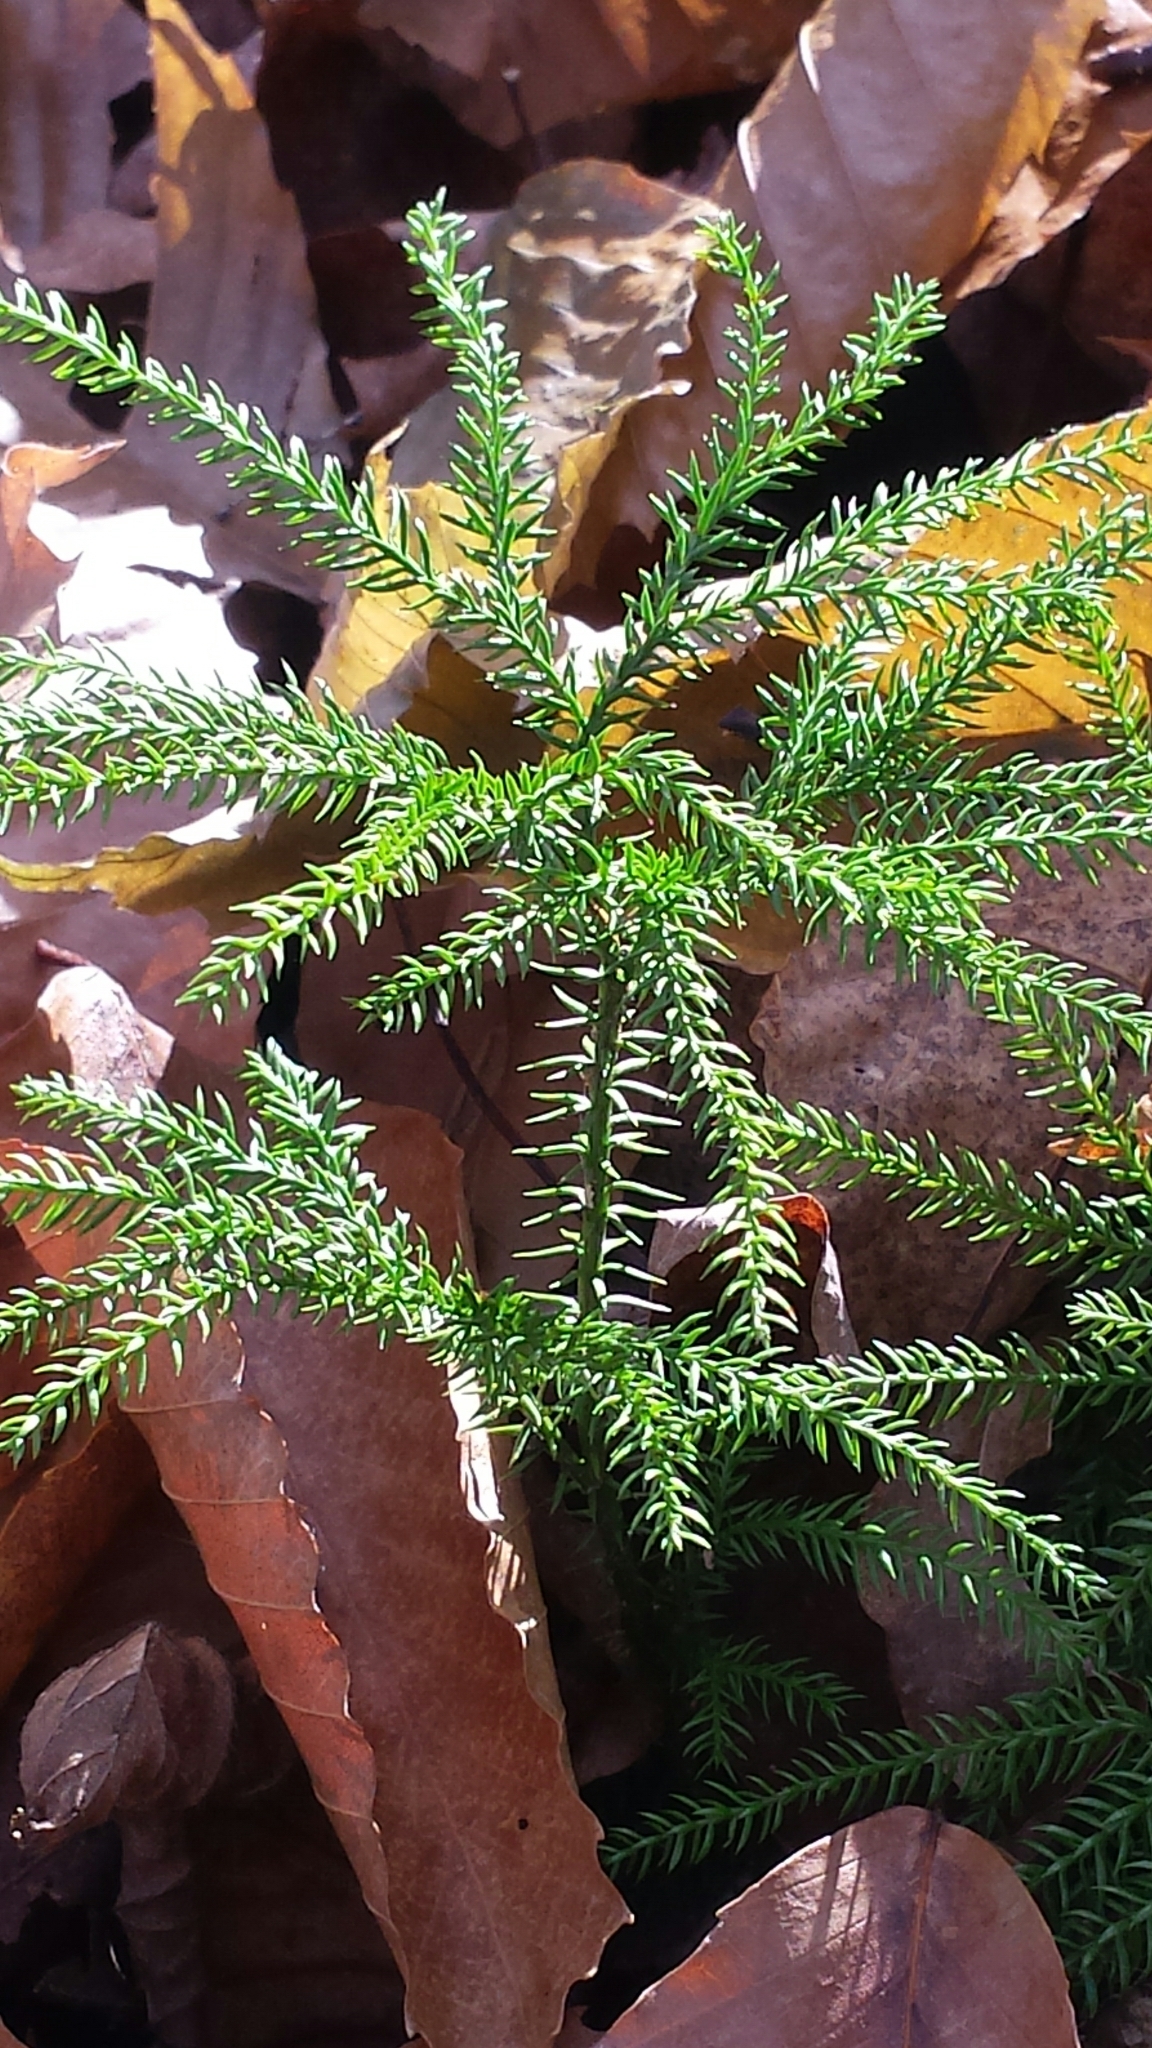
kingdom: Plantae
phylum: Tracheophyta
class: Lycopodiopsida
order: Lycopodiales
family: Lycopodiaceae
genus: Dendrolycopodium
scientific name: Dendrolycopodium dendroideum
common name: Northern tree-clubmoss
